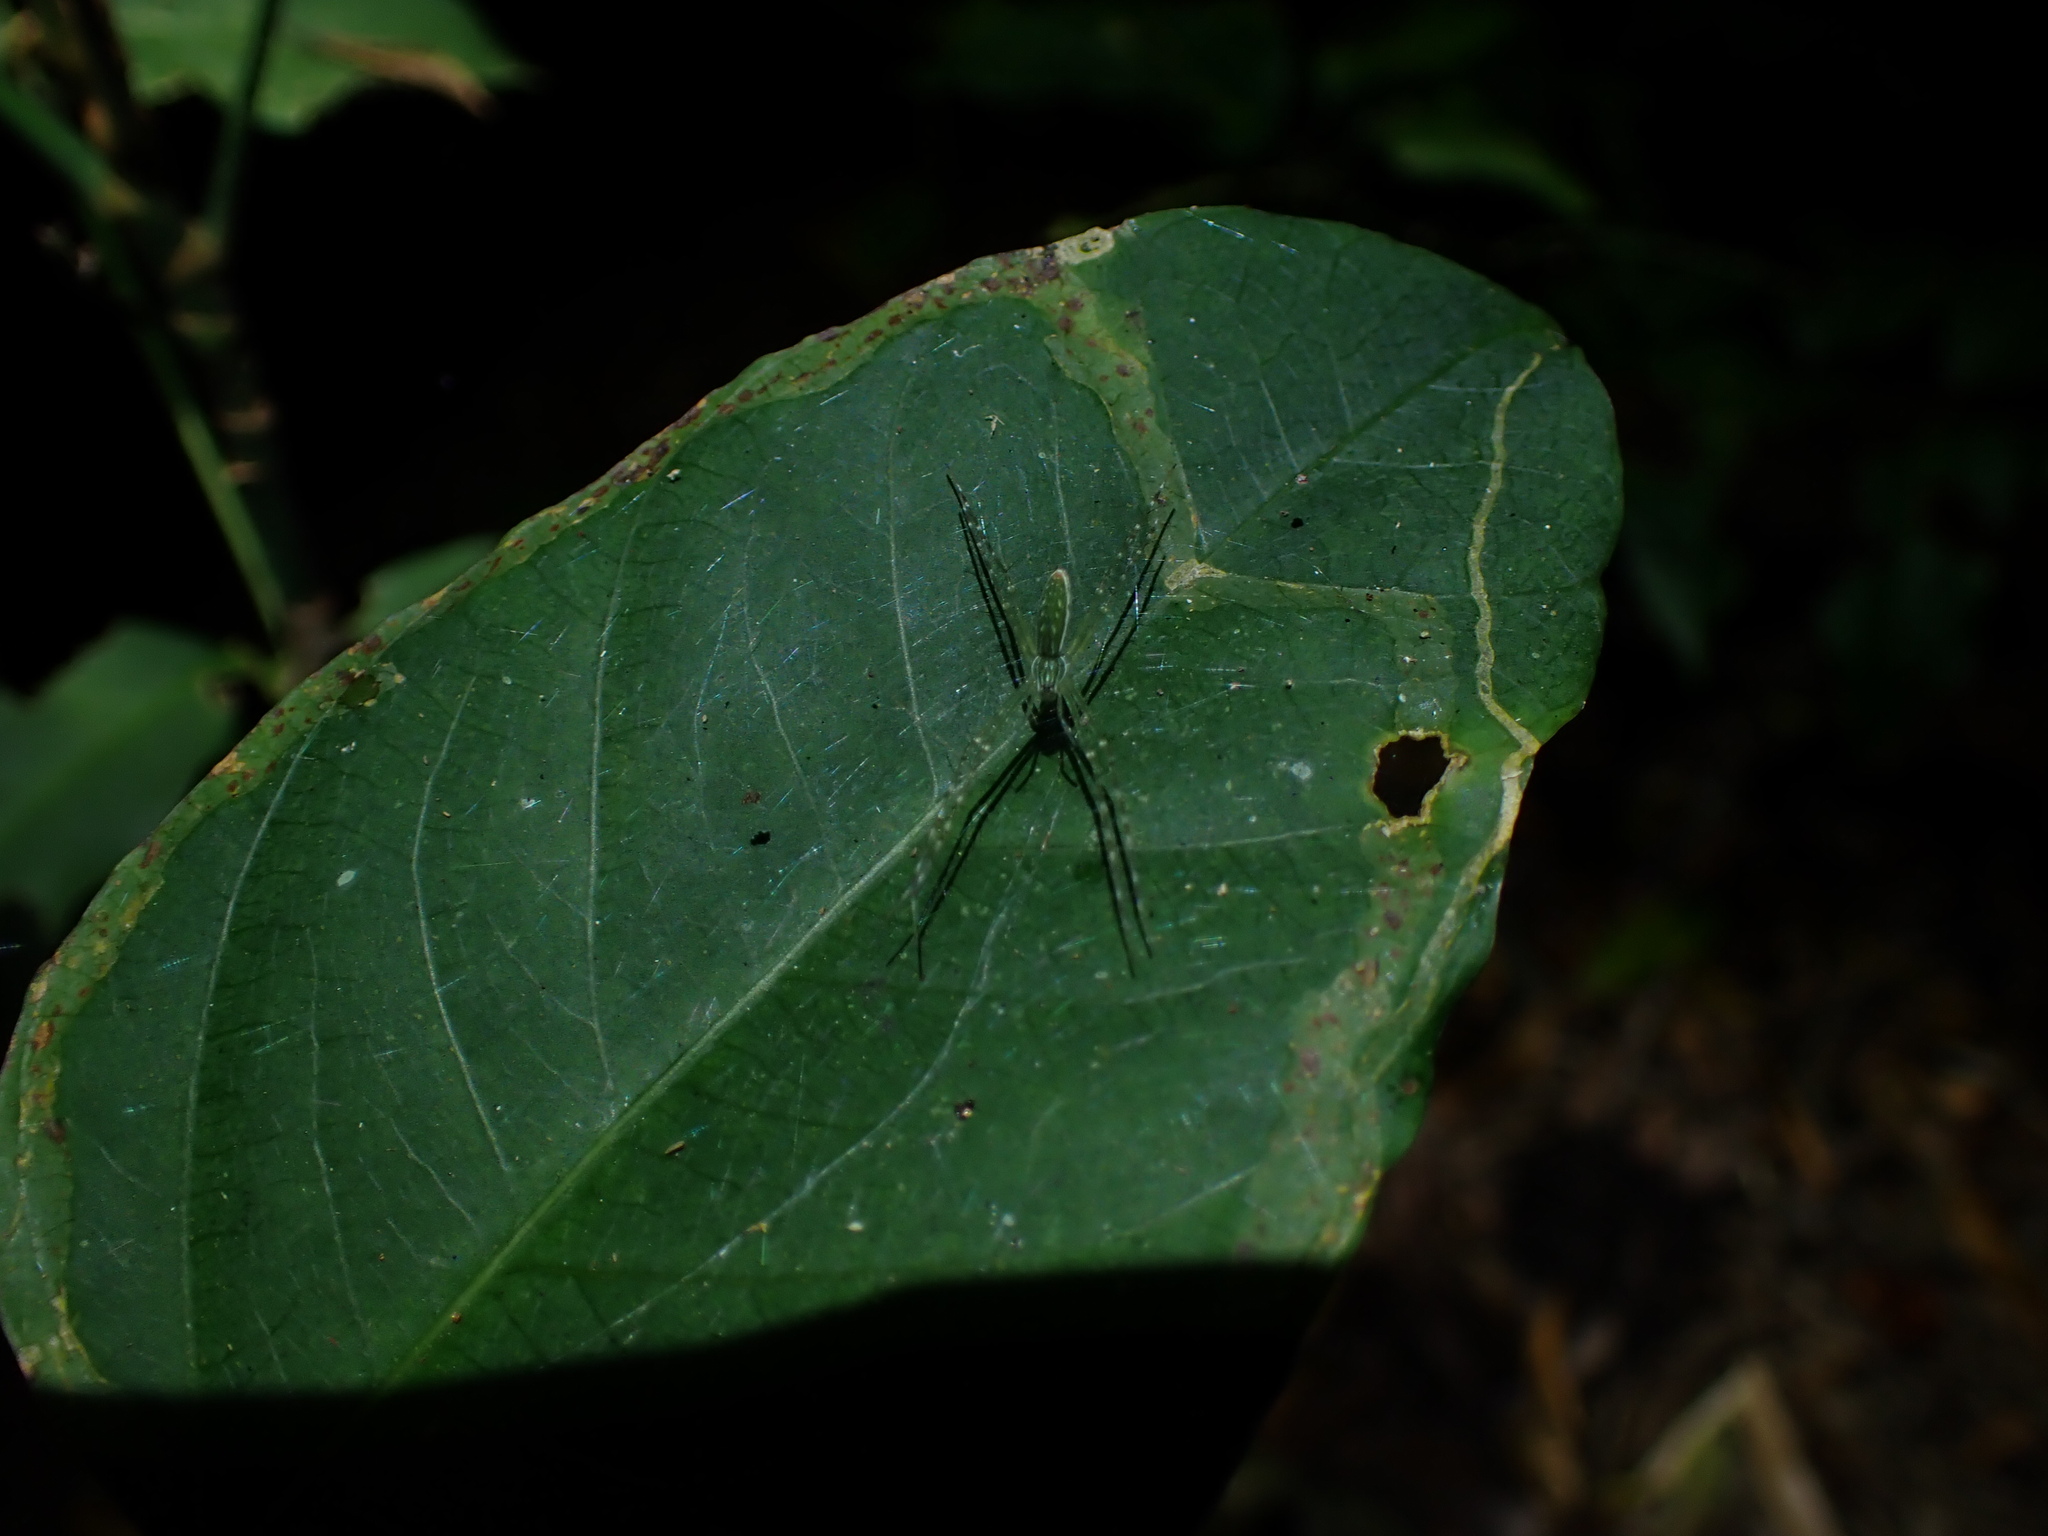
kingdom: Animalia
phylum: Arthropoda
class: Arachnida
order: Araneae
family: Pisauridae
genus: Hygropoda
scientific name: Hygropoda lineata
